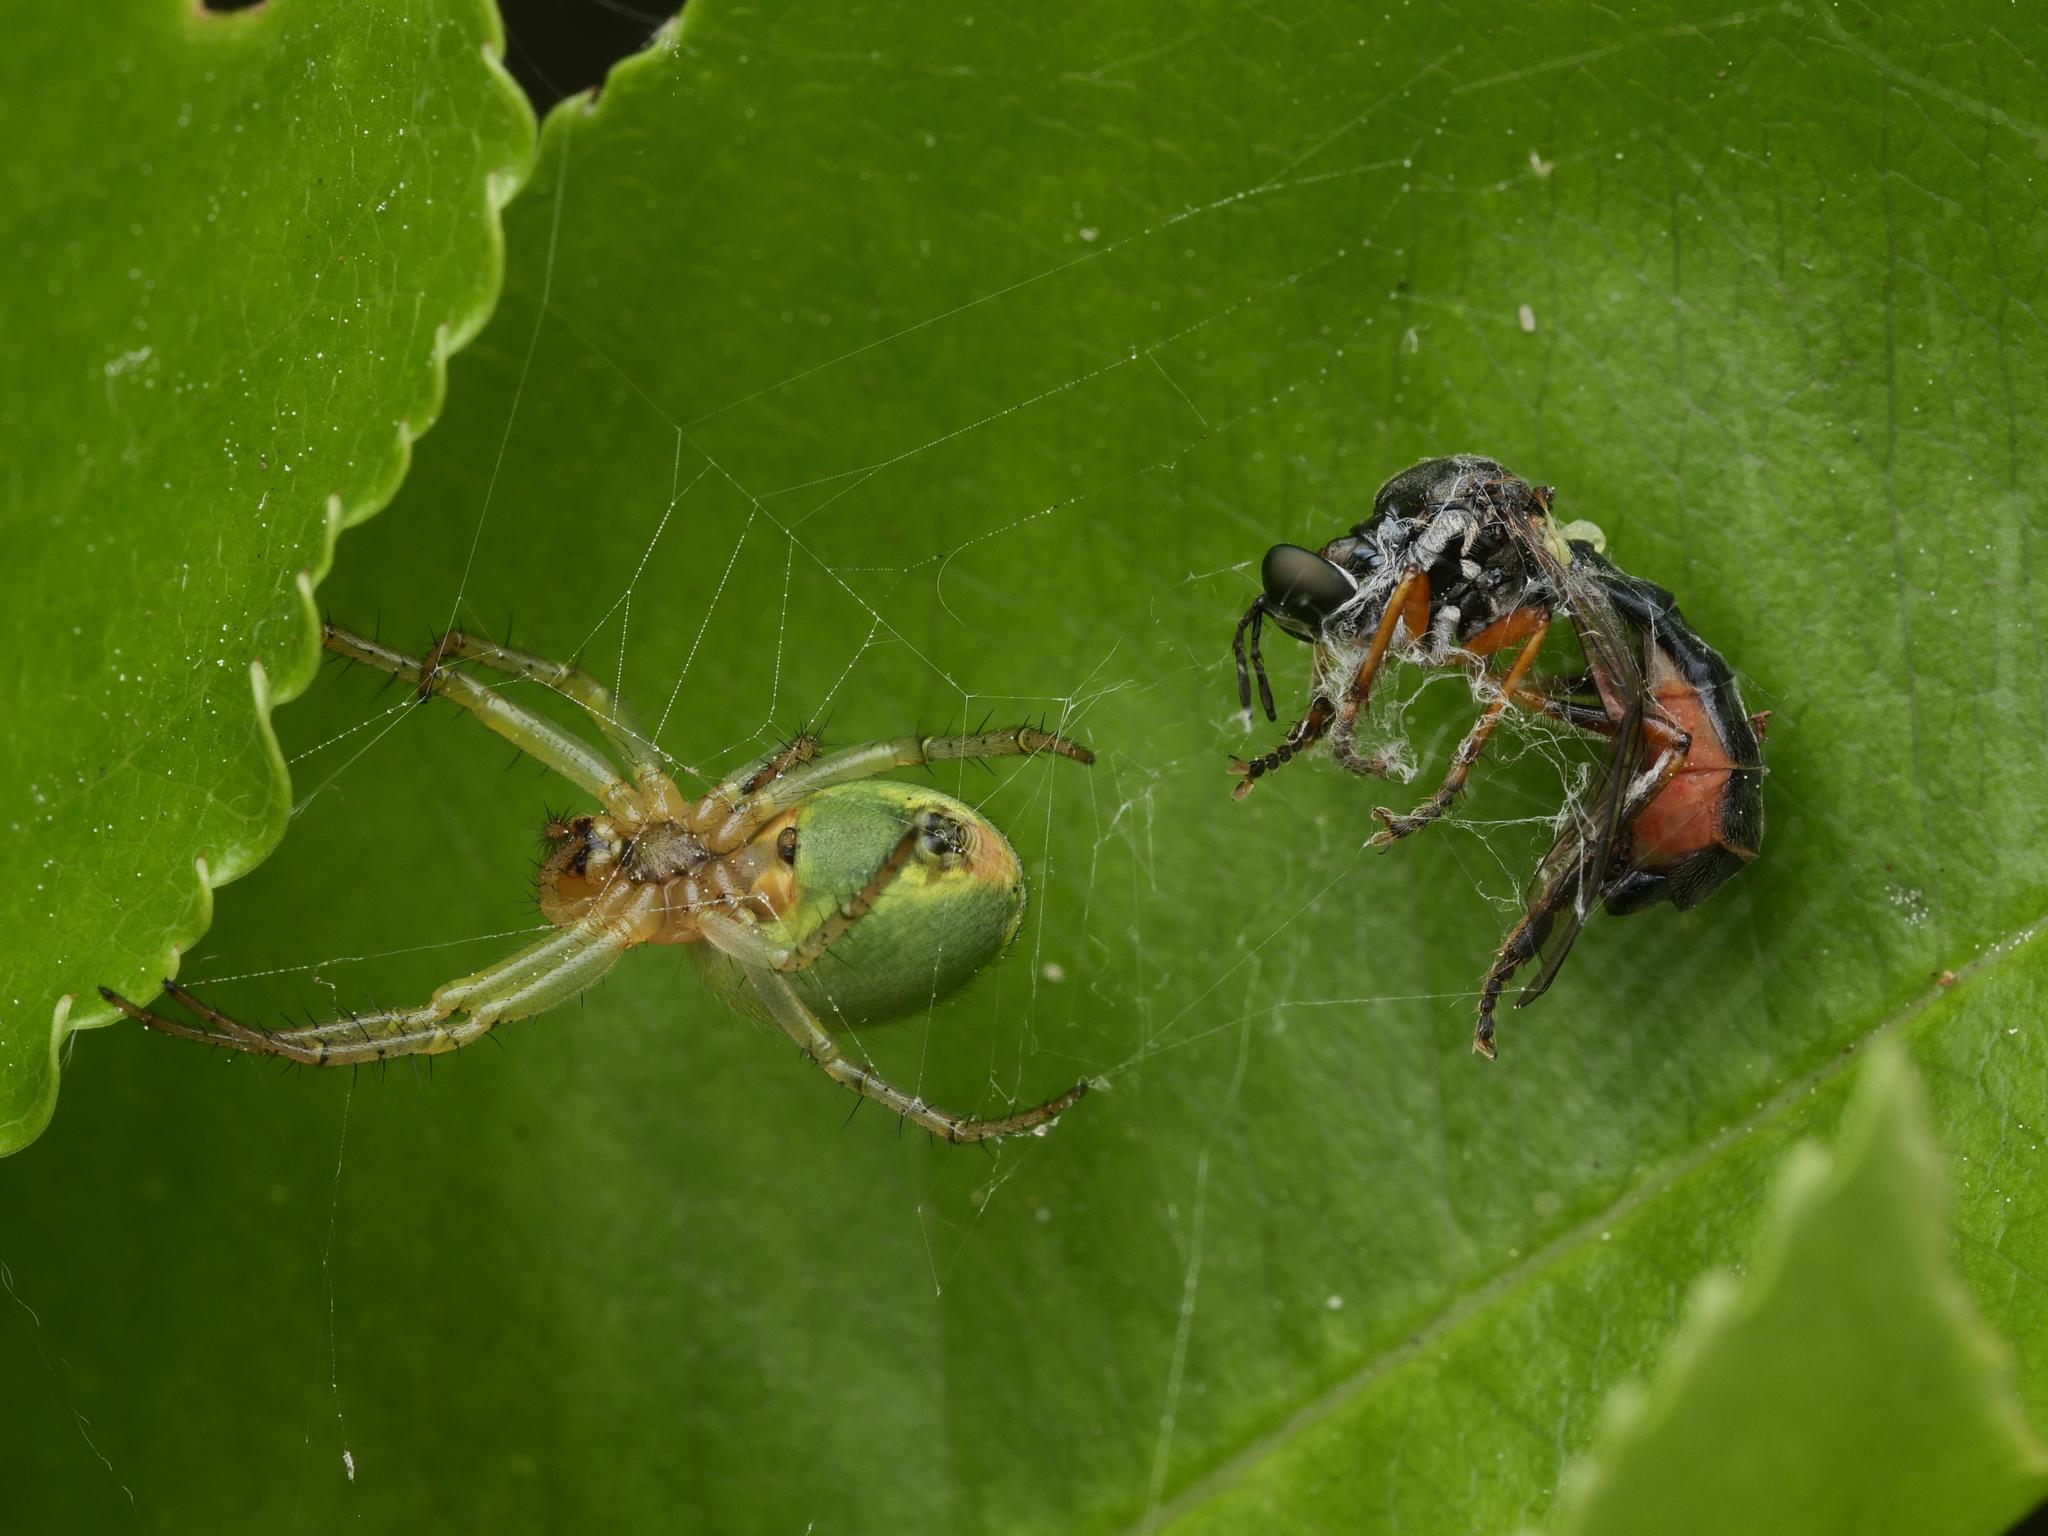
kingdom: Animalia
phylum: Arthropoda
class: Insecta
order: Diptera
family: Asilidae
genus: Dioctria
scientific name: Dioctria hyalipennis
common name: Stripe-legged robberfly
